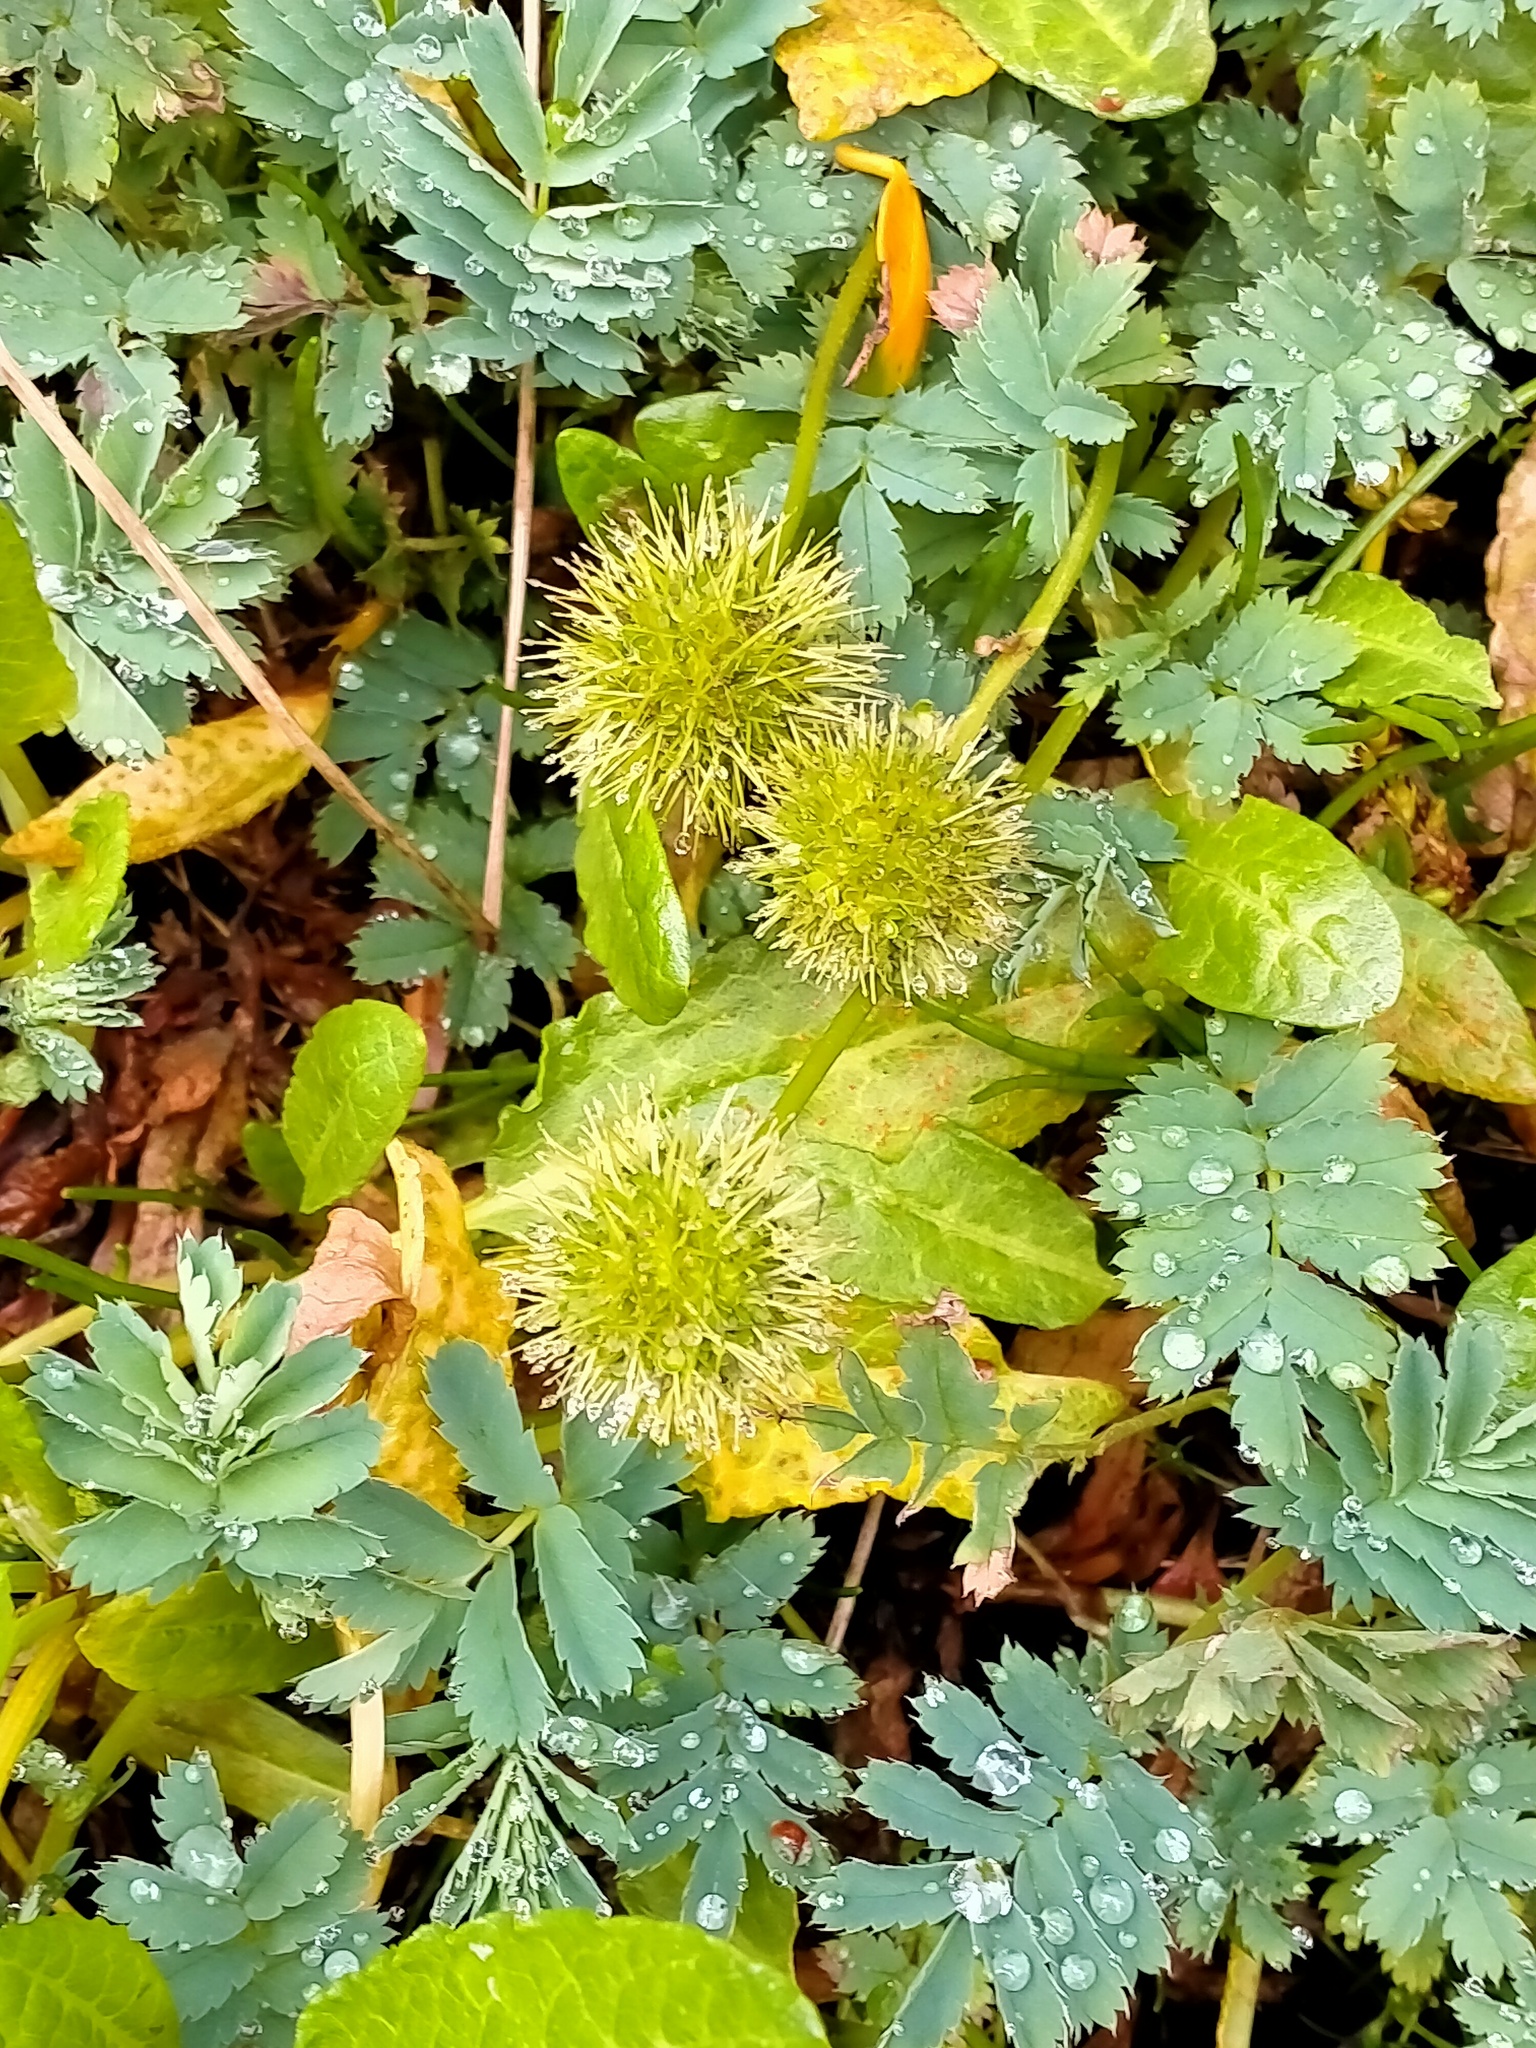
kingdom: Plantae
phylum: Tracheophyta
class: Magnoliopsida
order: Rosales
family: Rosaceae
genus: Acaena
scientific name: Acaena minor
